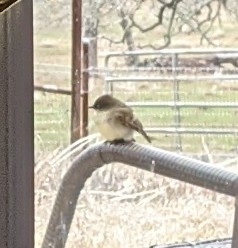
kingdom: Animalia
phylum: Chordata
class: Aves
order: Passeriformes
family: Tyrannidae
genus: Sayornis
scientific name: Sayornis phoebe
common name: Eastern phoebe
